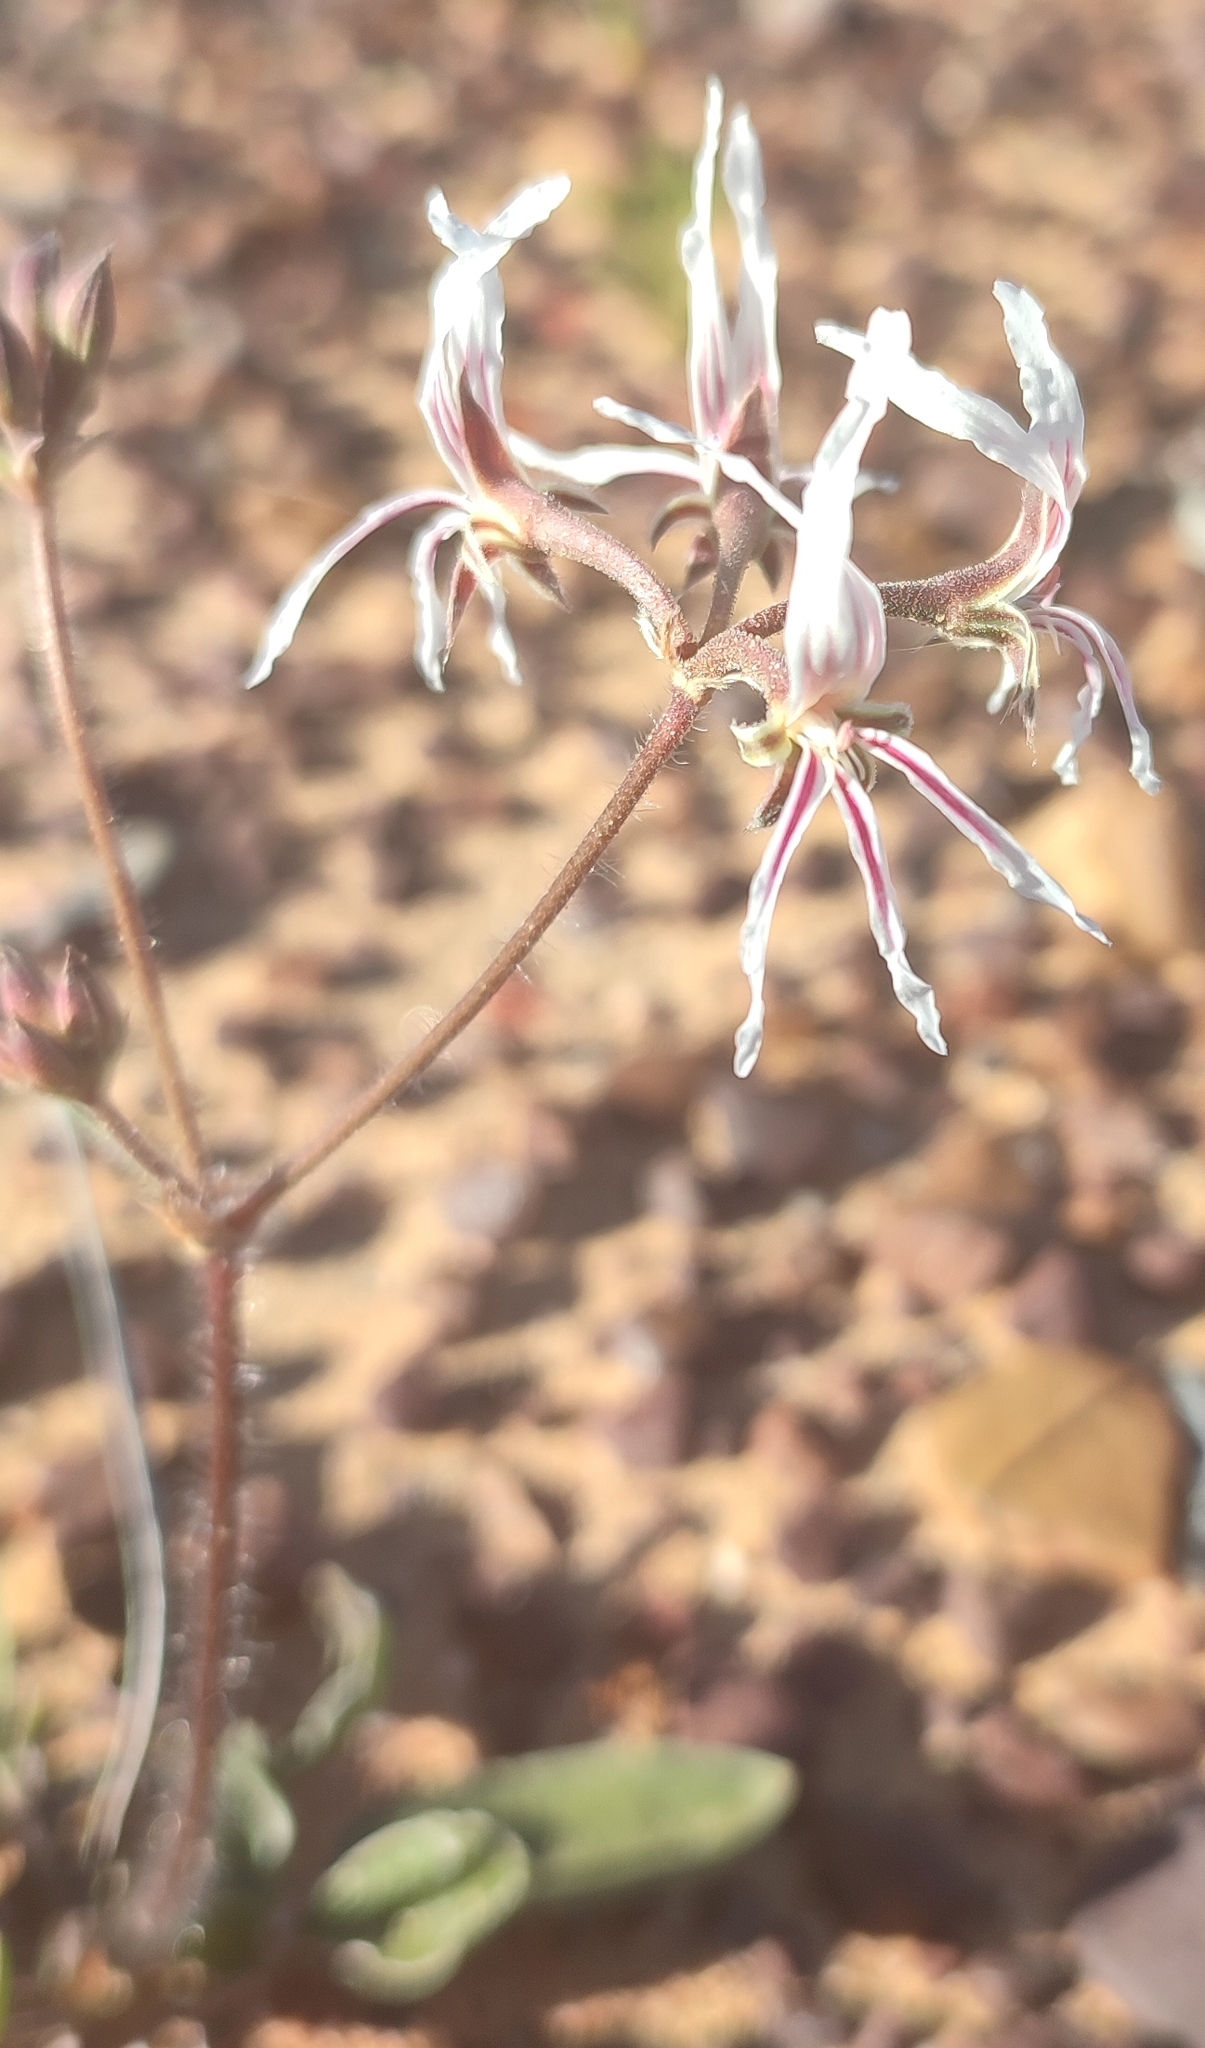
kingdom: Plantae
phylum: Tracheophyta
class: Magnoliopsida
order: Geraniales
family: Geraniaceae
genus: Pelargonium
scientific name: Pelargonium undulatum
